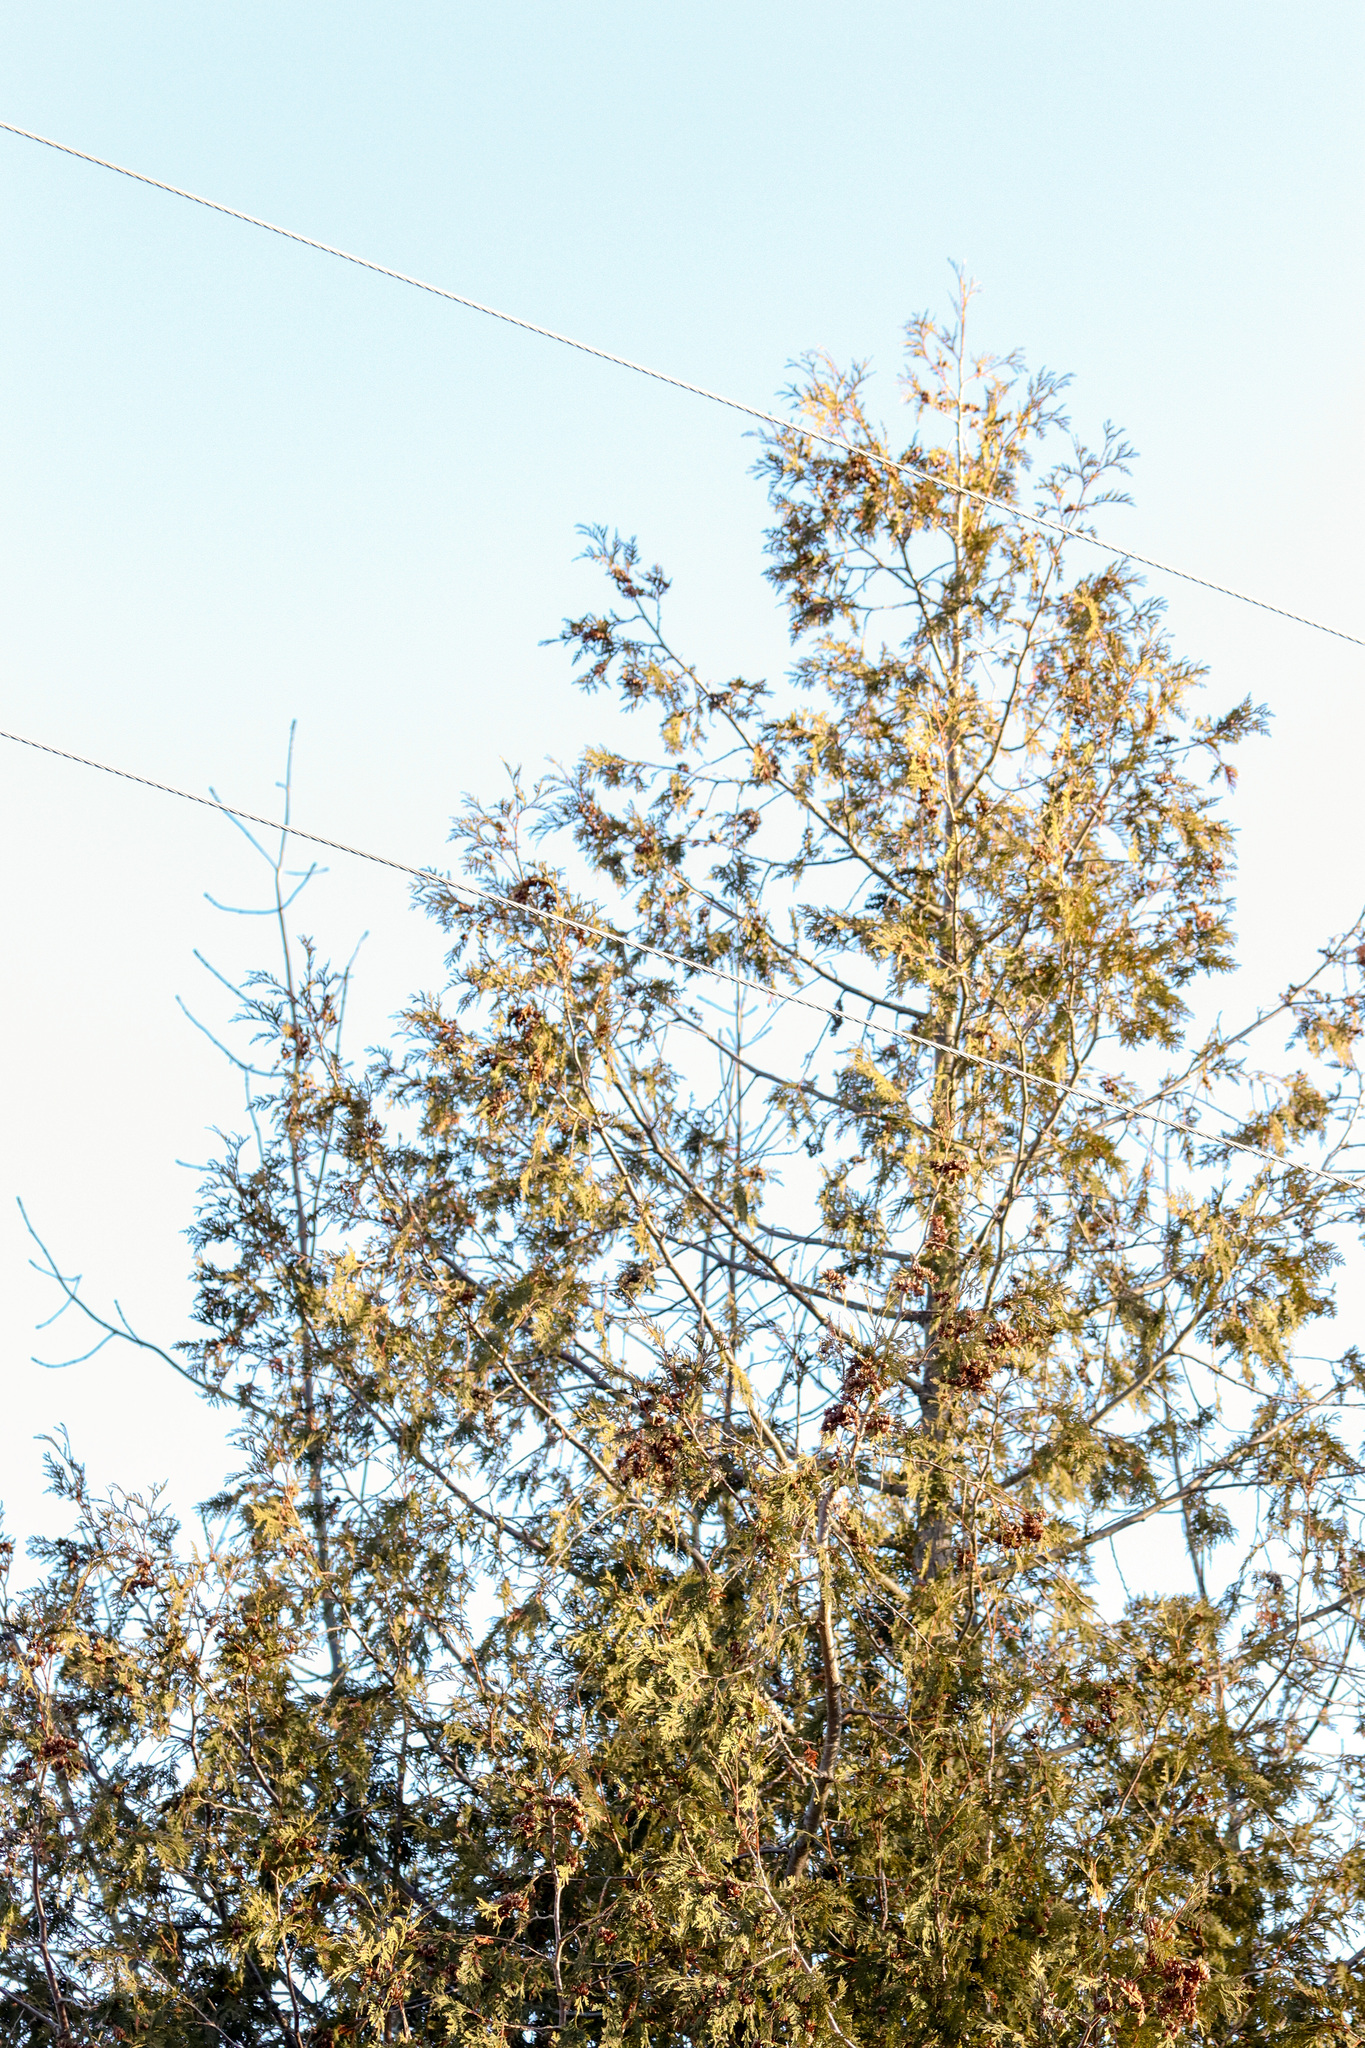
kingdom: Plantae
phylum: Tracheophyta
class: Pinopsida
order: Pinales
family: Cupressaceae
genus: Thuja
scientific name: Thuja occidentalis
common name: Northern white-cedar
